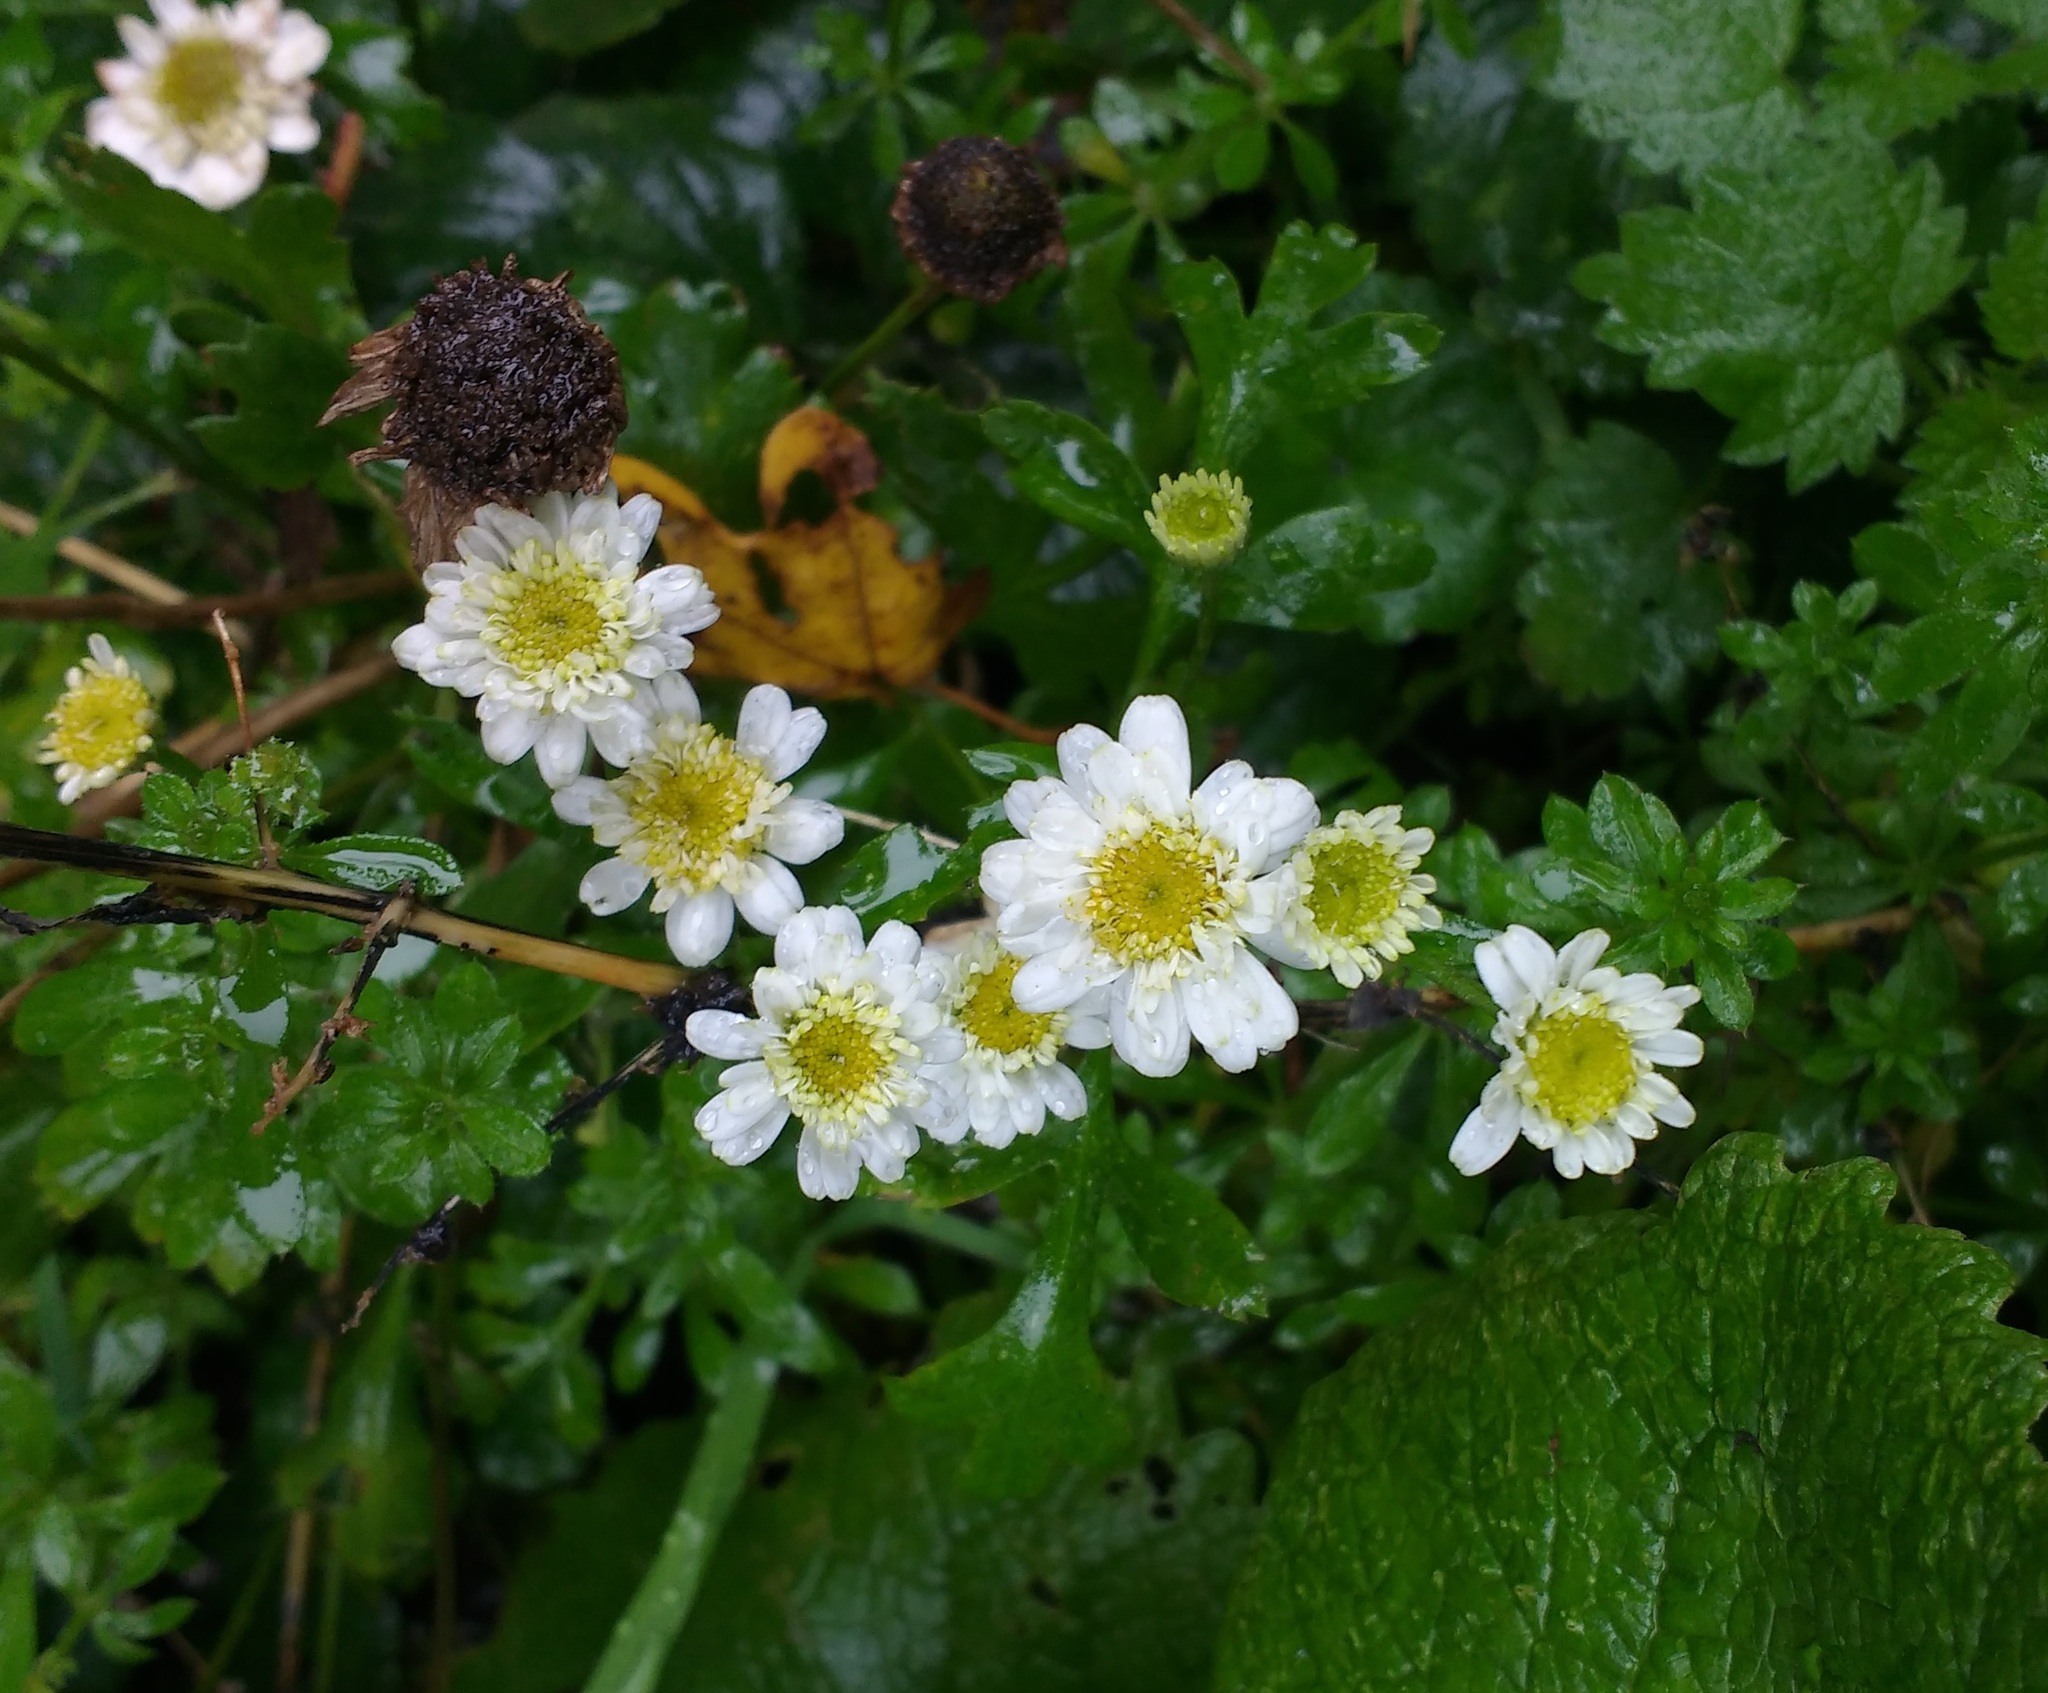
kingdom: Plantae
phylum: Tracheophyta
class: Magnoliopsida
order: Asterales
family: Asteraceae
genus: Tanacetum
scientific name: Tanacetum parthenium
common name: Feverfew
